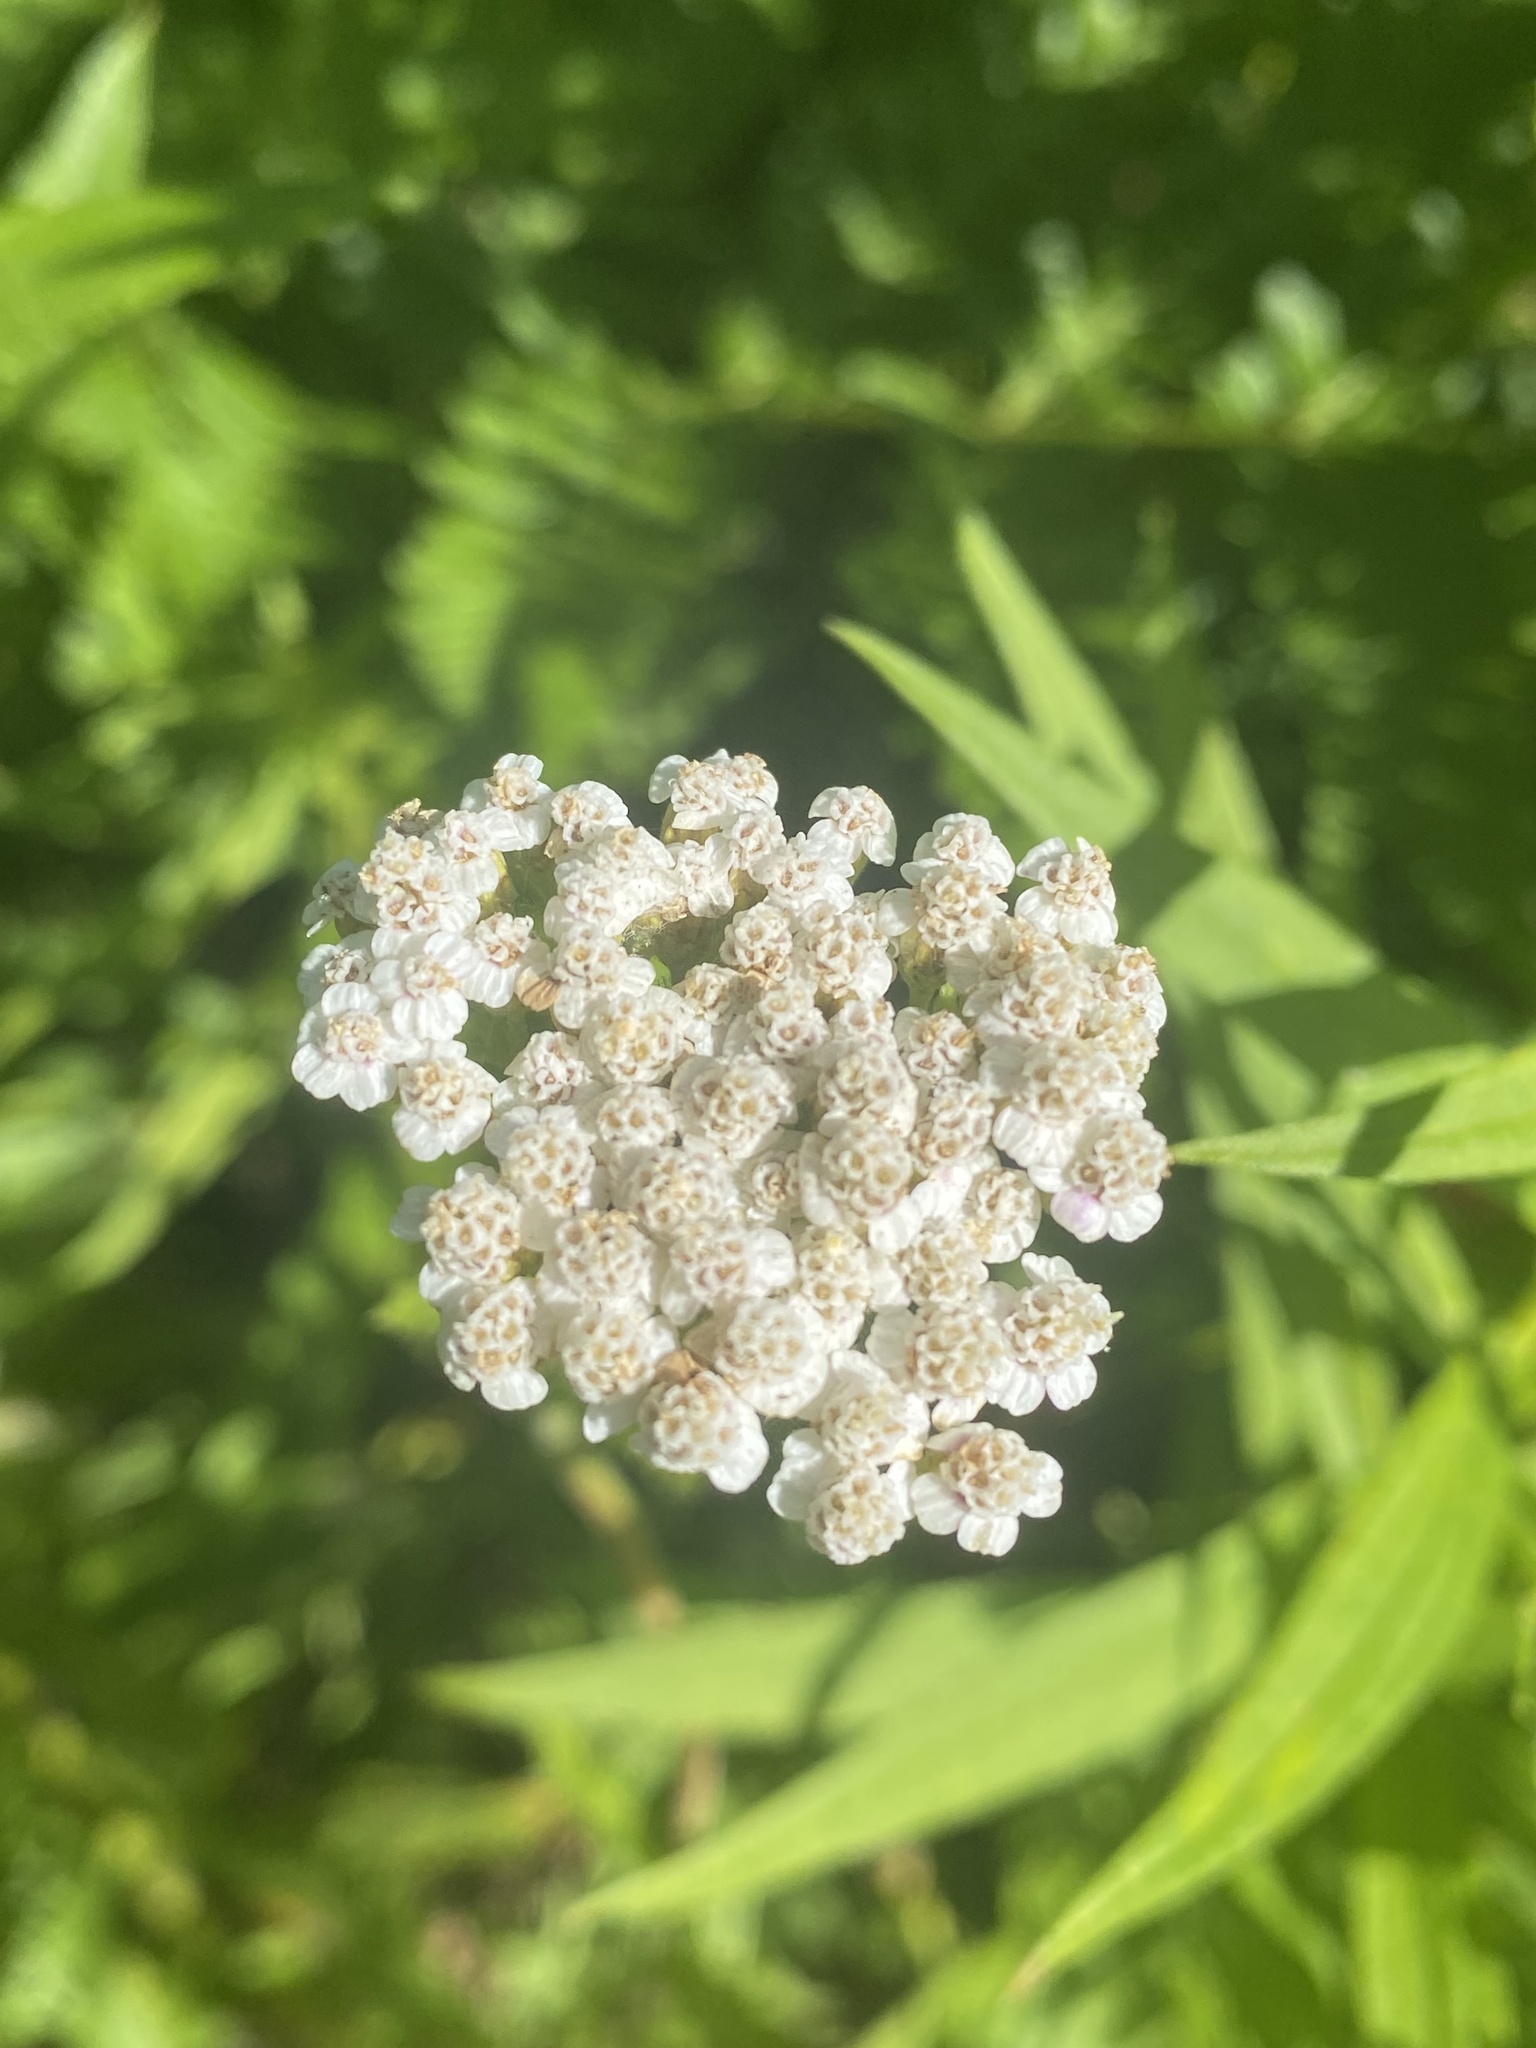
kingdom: Plantae
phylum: Tracheophyta
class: Magnoliopsida
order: Asterales
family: Asteraceae
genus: Achillea
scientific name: Achillea millefolium
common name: Yarrow
